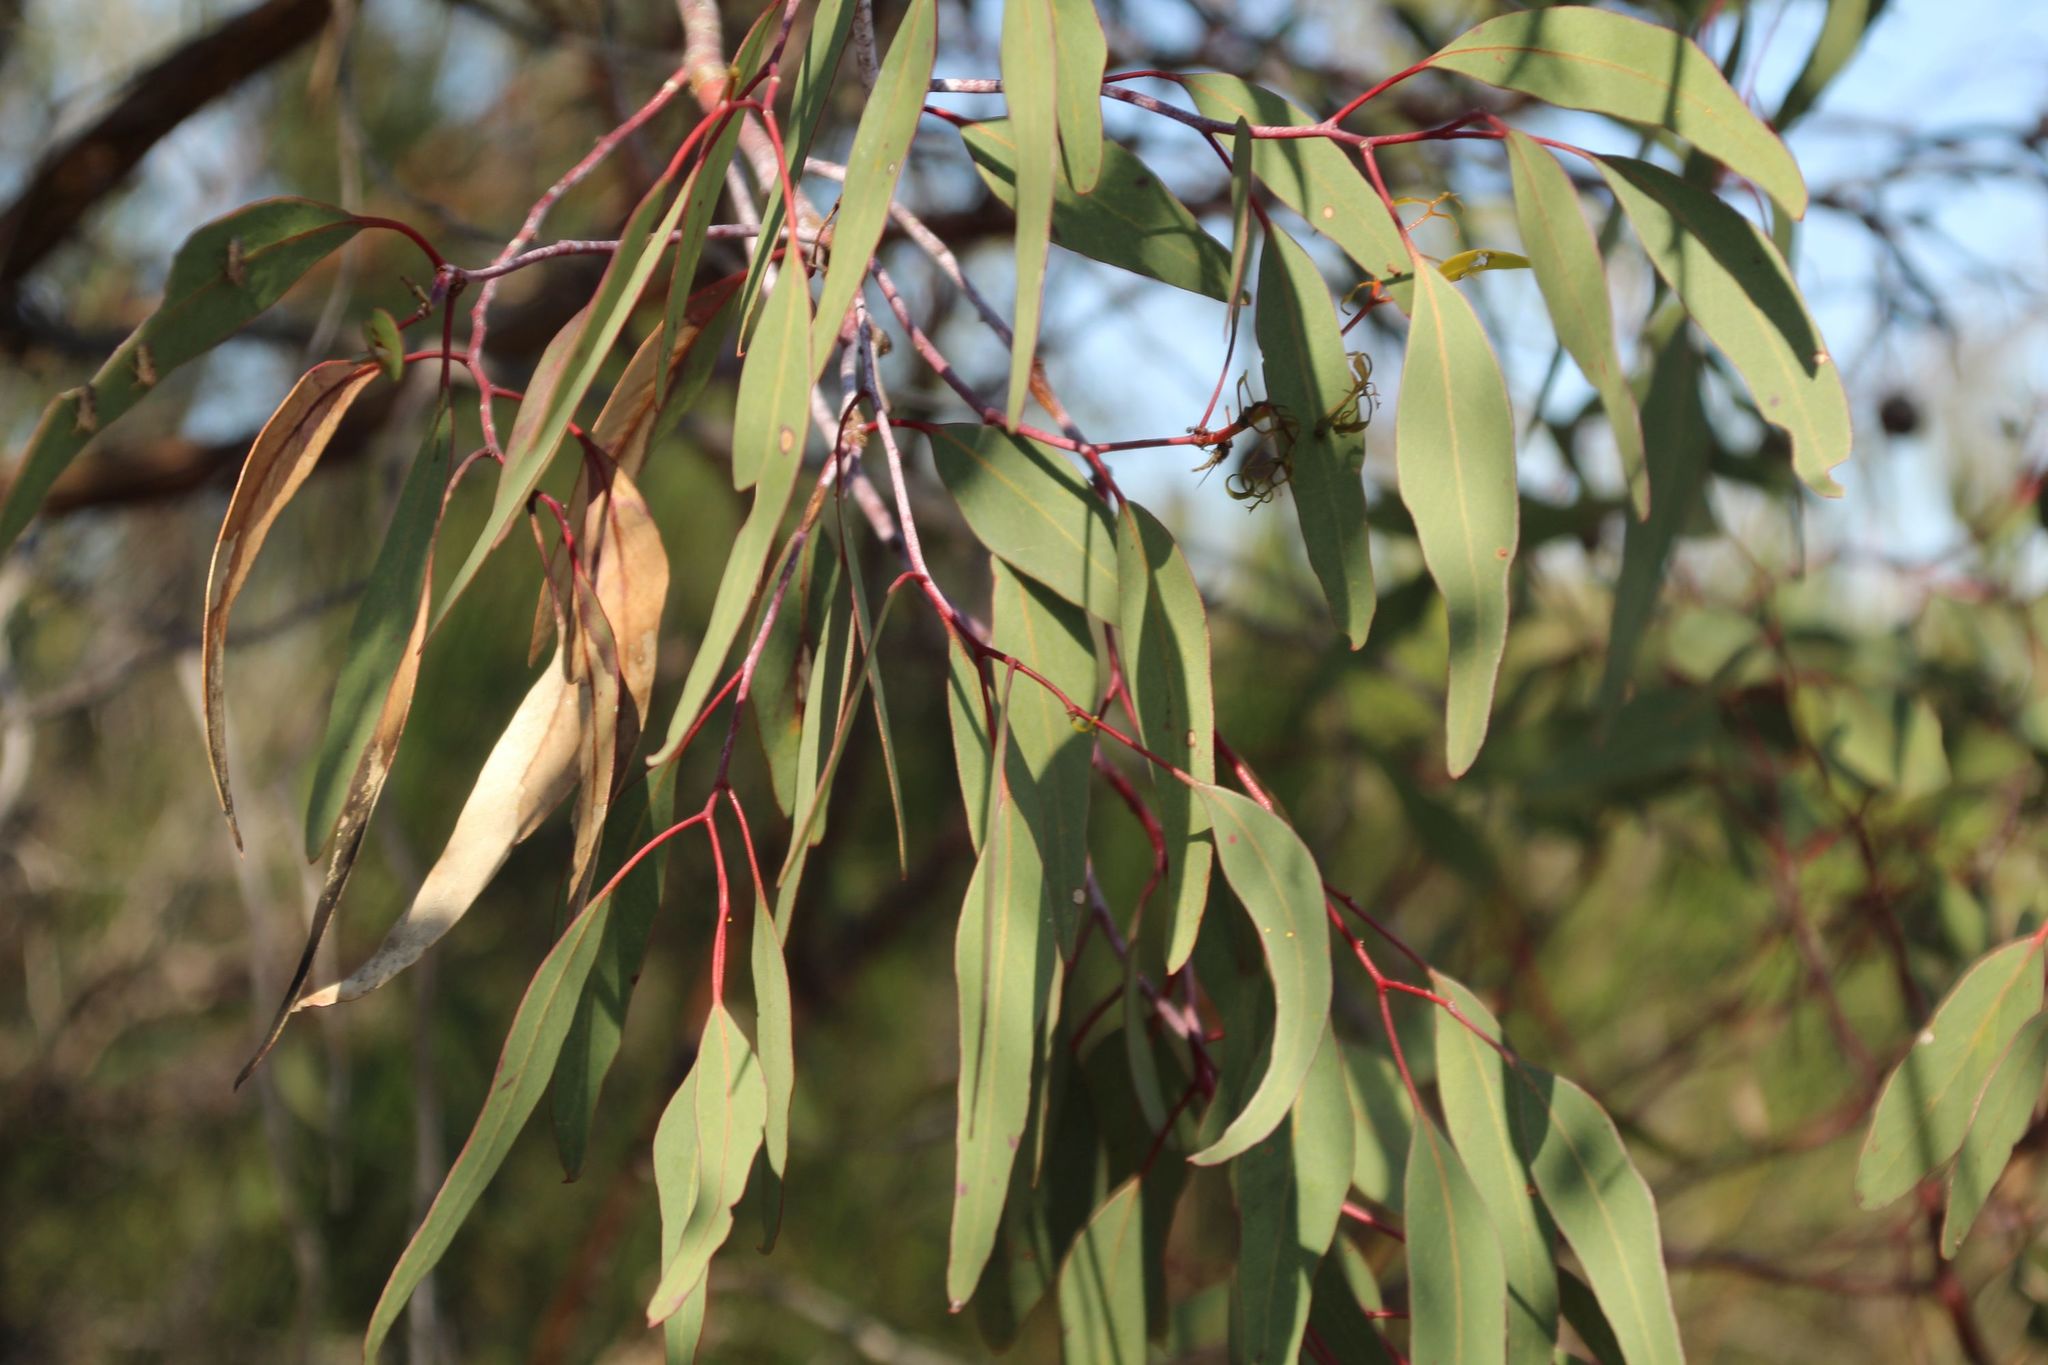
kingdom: Plantae
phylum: Tracheophyta
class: Magnoliopsida
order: Myrtales
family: Myrtaceae
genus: Eucalyptus
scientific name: Eucalyptus caesia
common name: Silver princess
